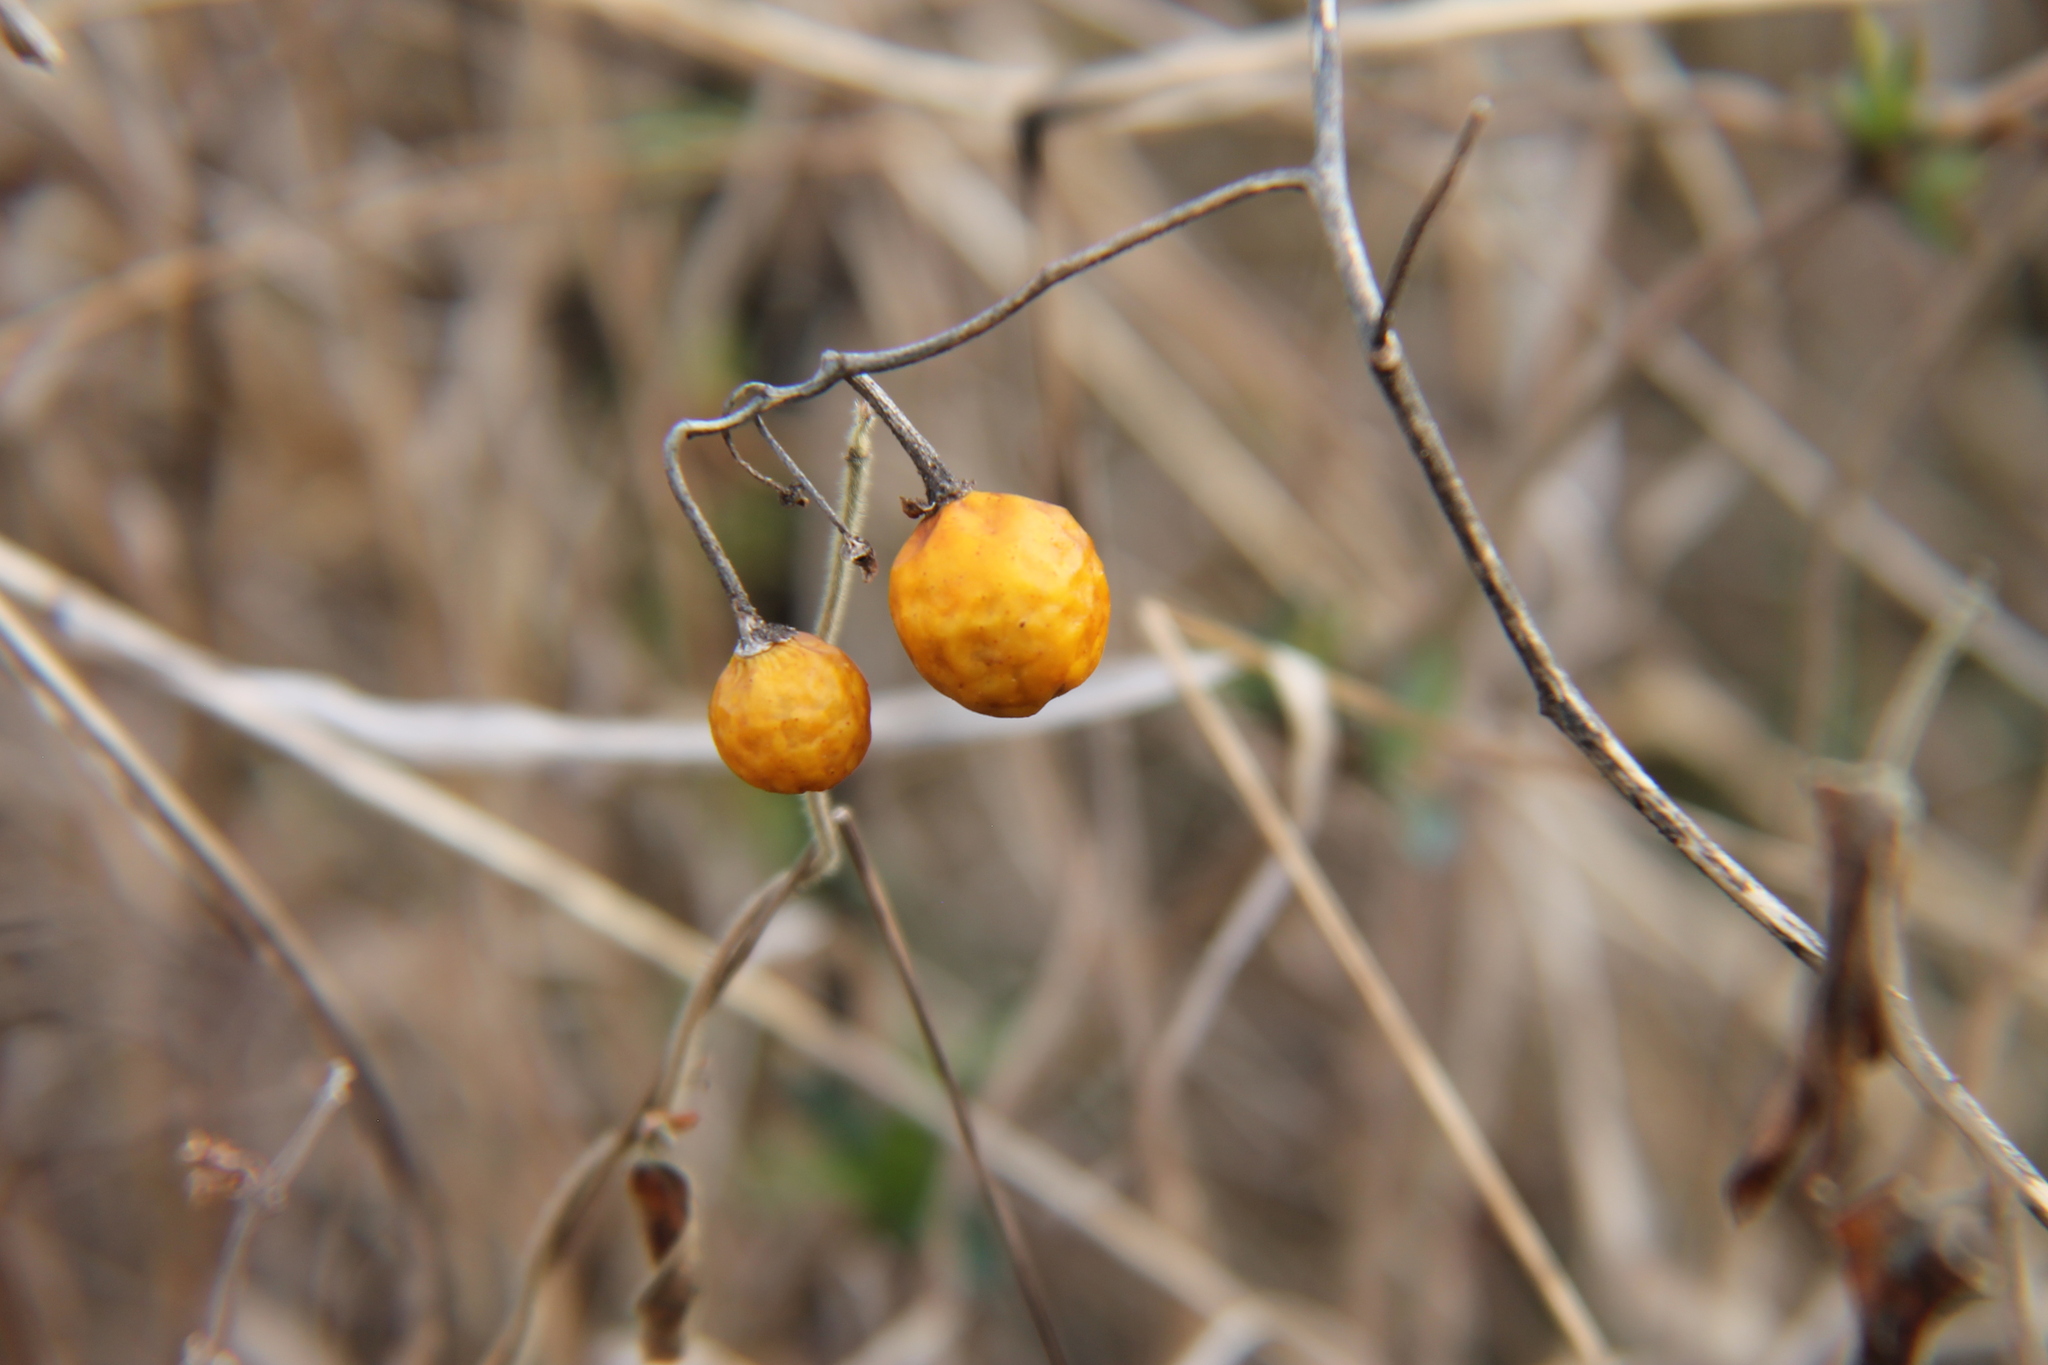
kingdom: Plantae
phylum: Tracheophyta
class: Magnoliopsida
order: Solanales
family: Solanaceae
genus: Solanum
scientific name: Solanum carolinense
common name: Horse-nettle
